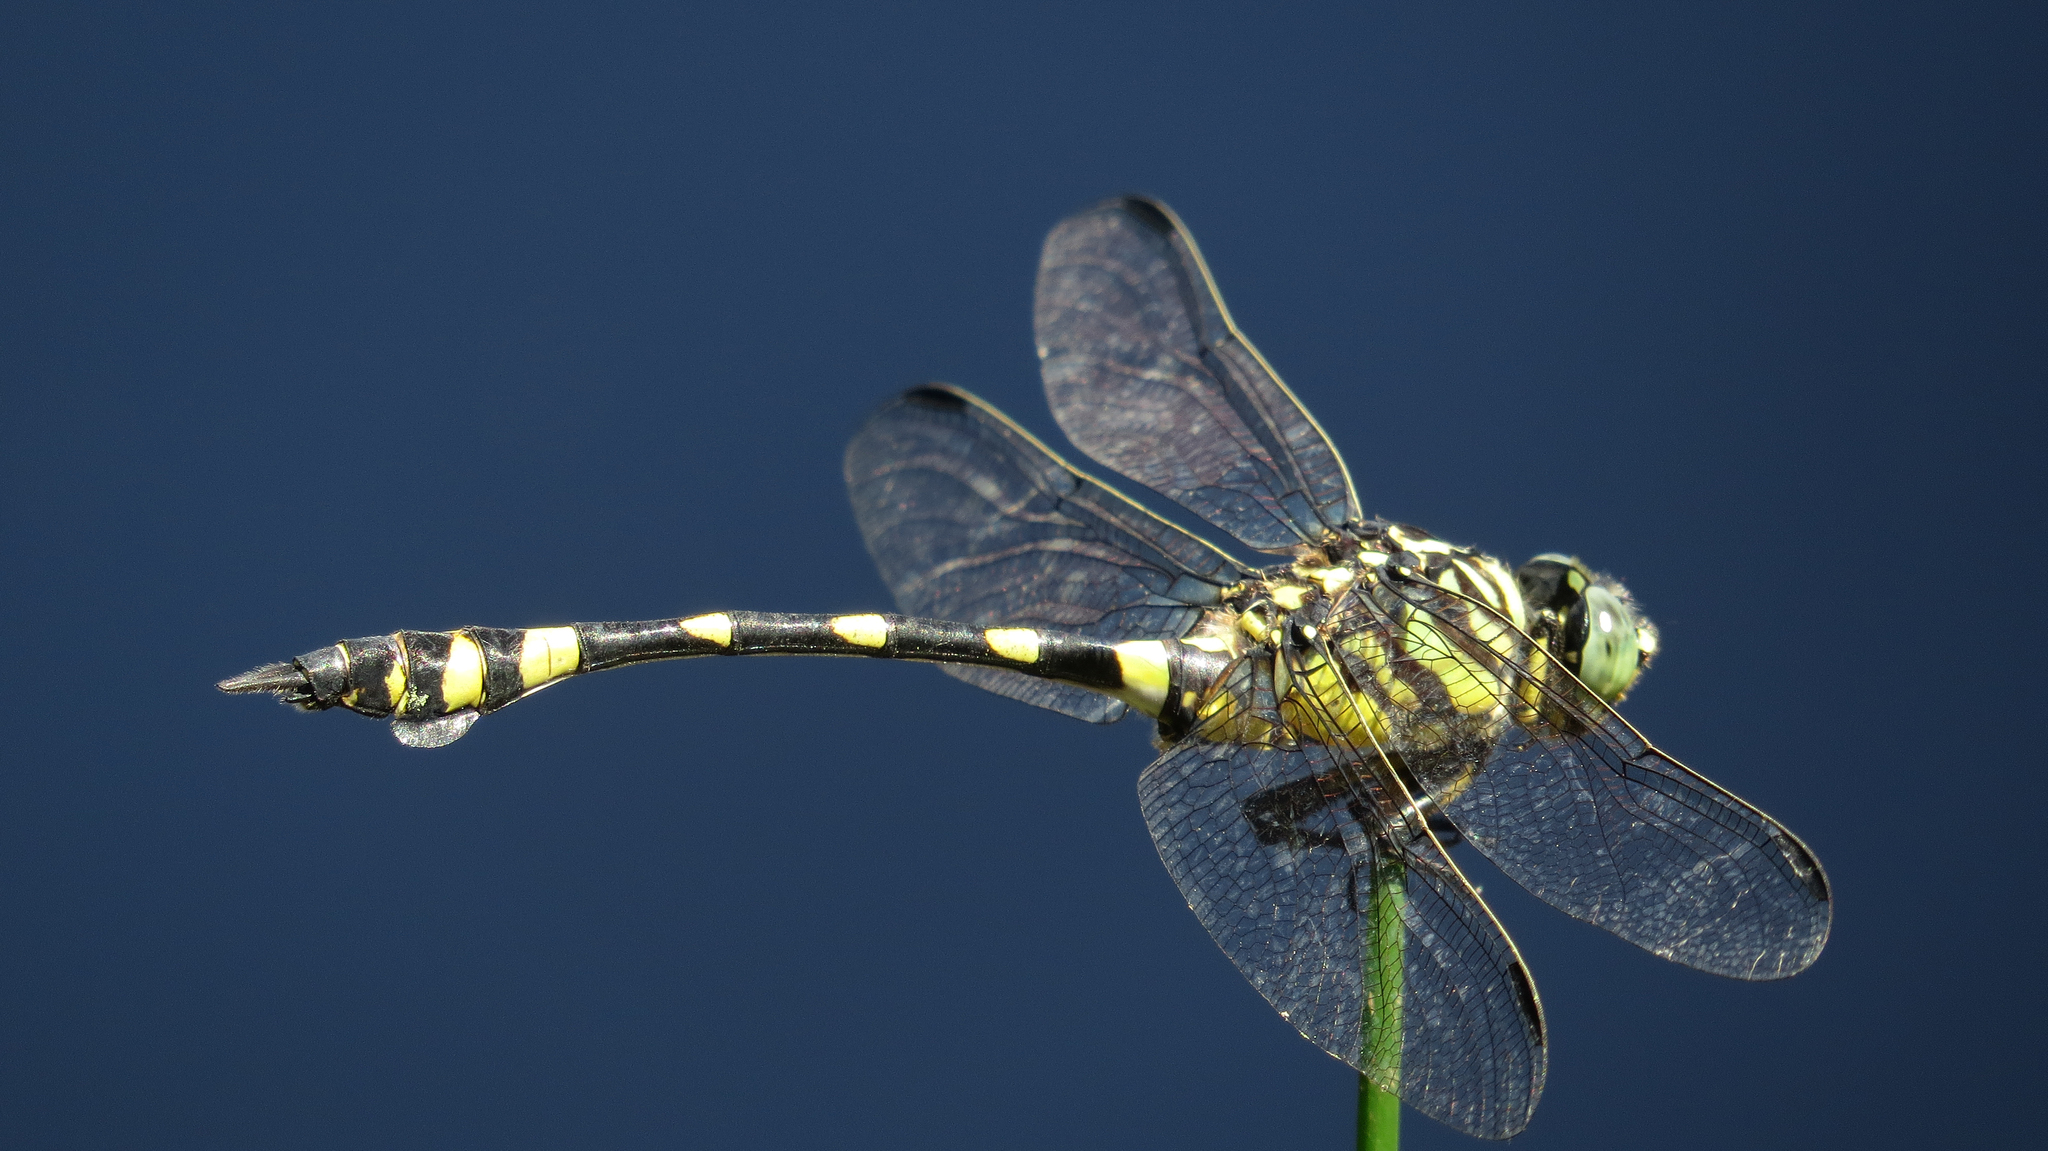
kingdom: Animalia
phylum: Arthropoda
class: Insecta
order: Odonata
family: Gomphidae
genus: Ictinogomphus
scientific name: Ictinogomphus australis
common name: Australian tiger
